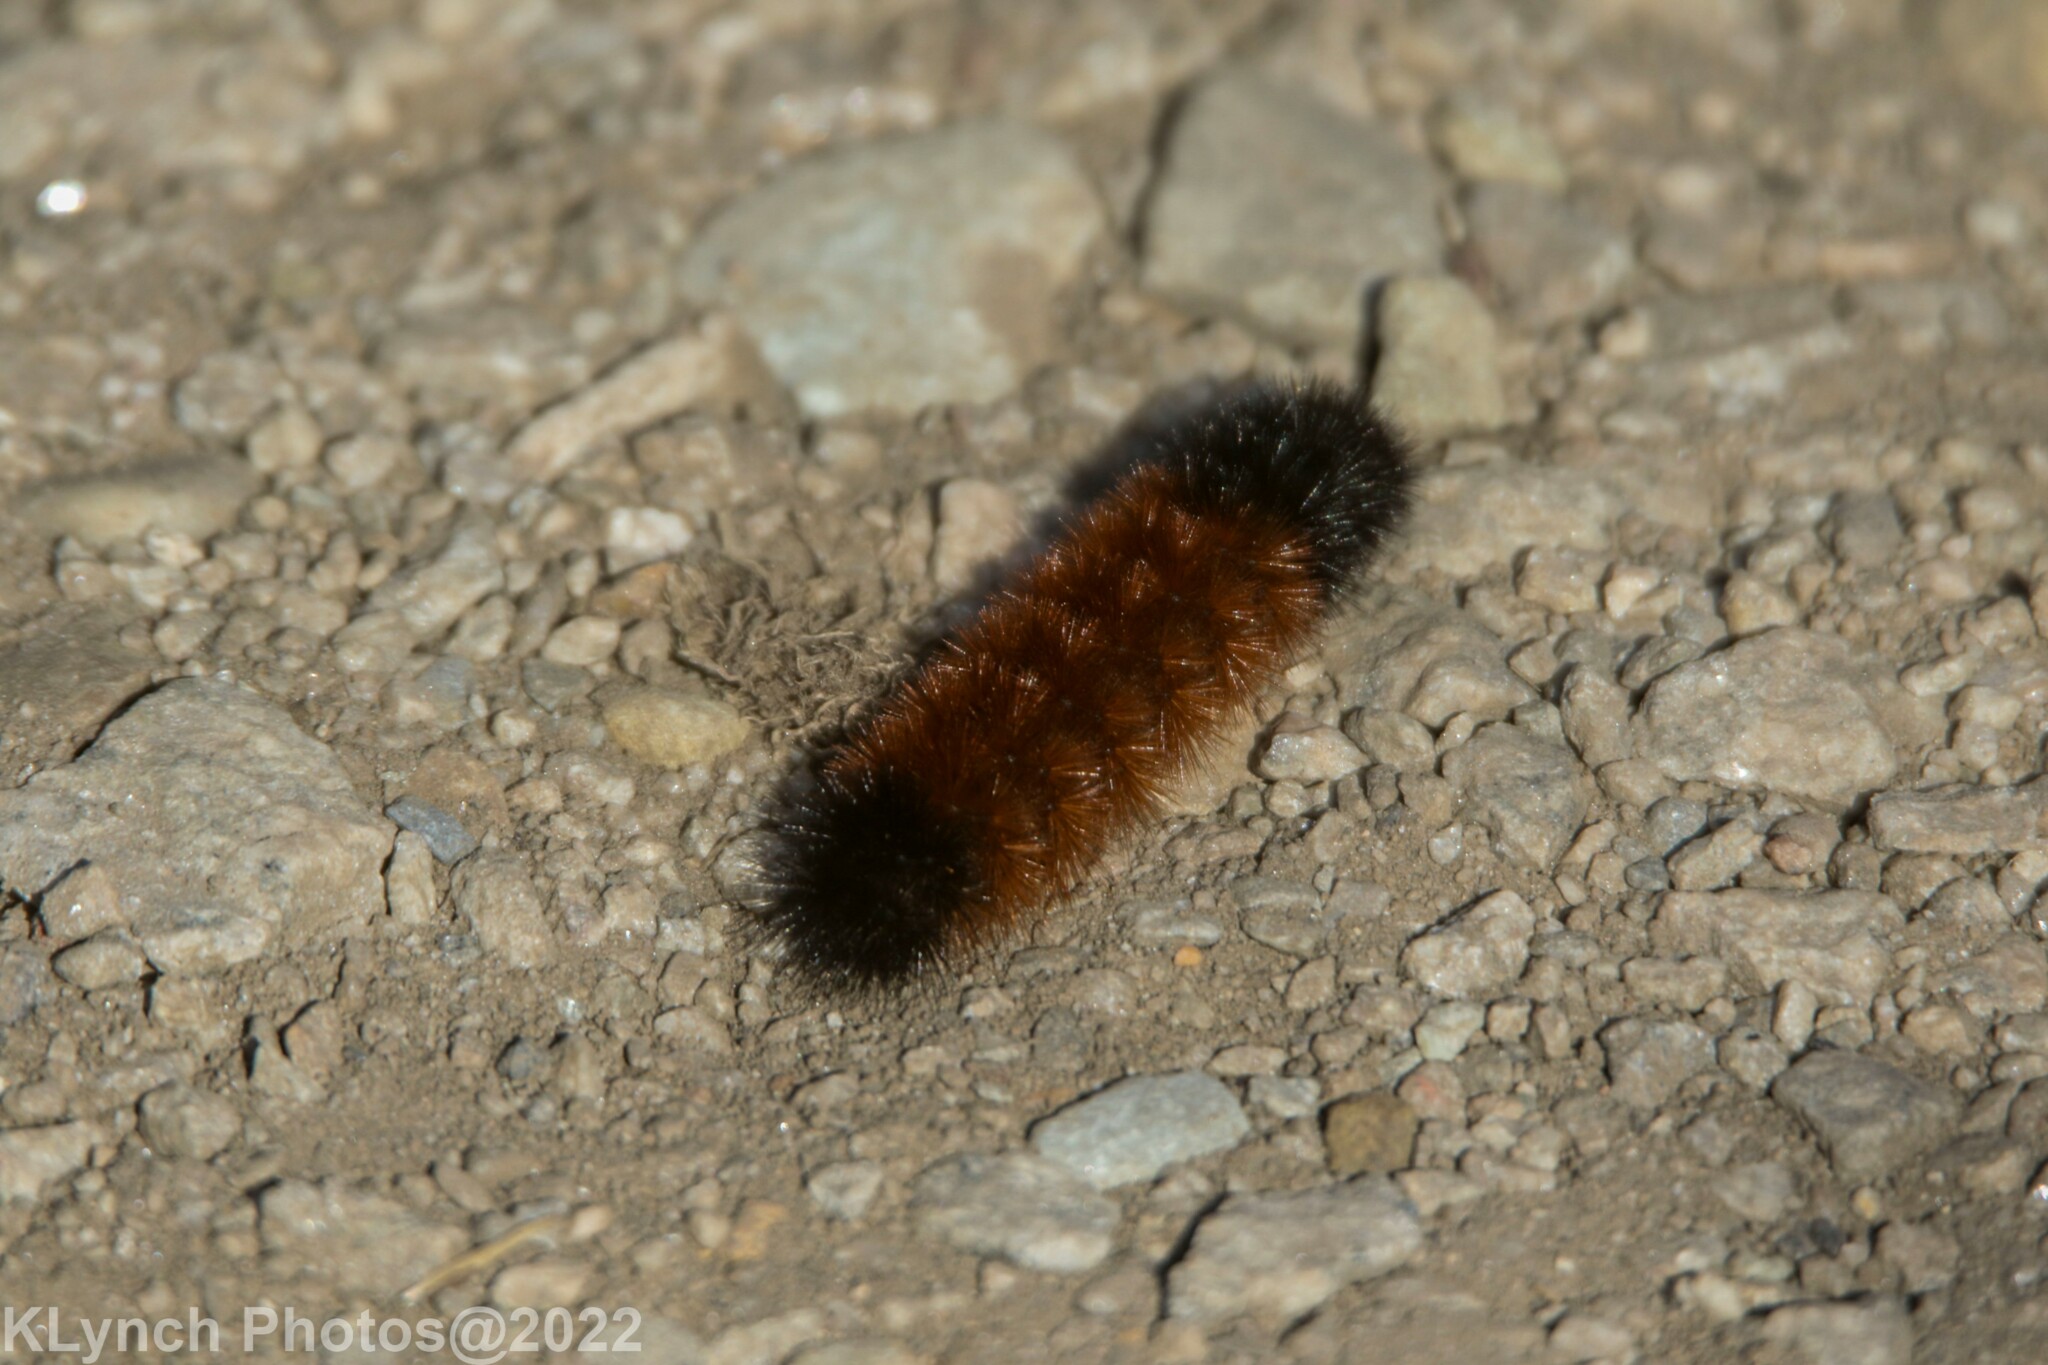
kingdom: Animalia
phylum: Arthropoda
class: Insecta
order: Lepidoptera
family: Erebidae
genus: Pyrrharctia
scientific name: Pyrrharctia isabella
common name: Isabella tiger moth
